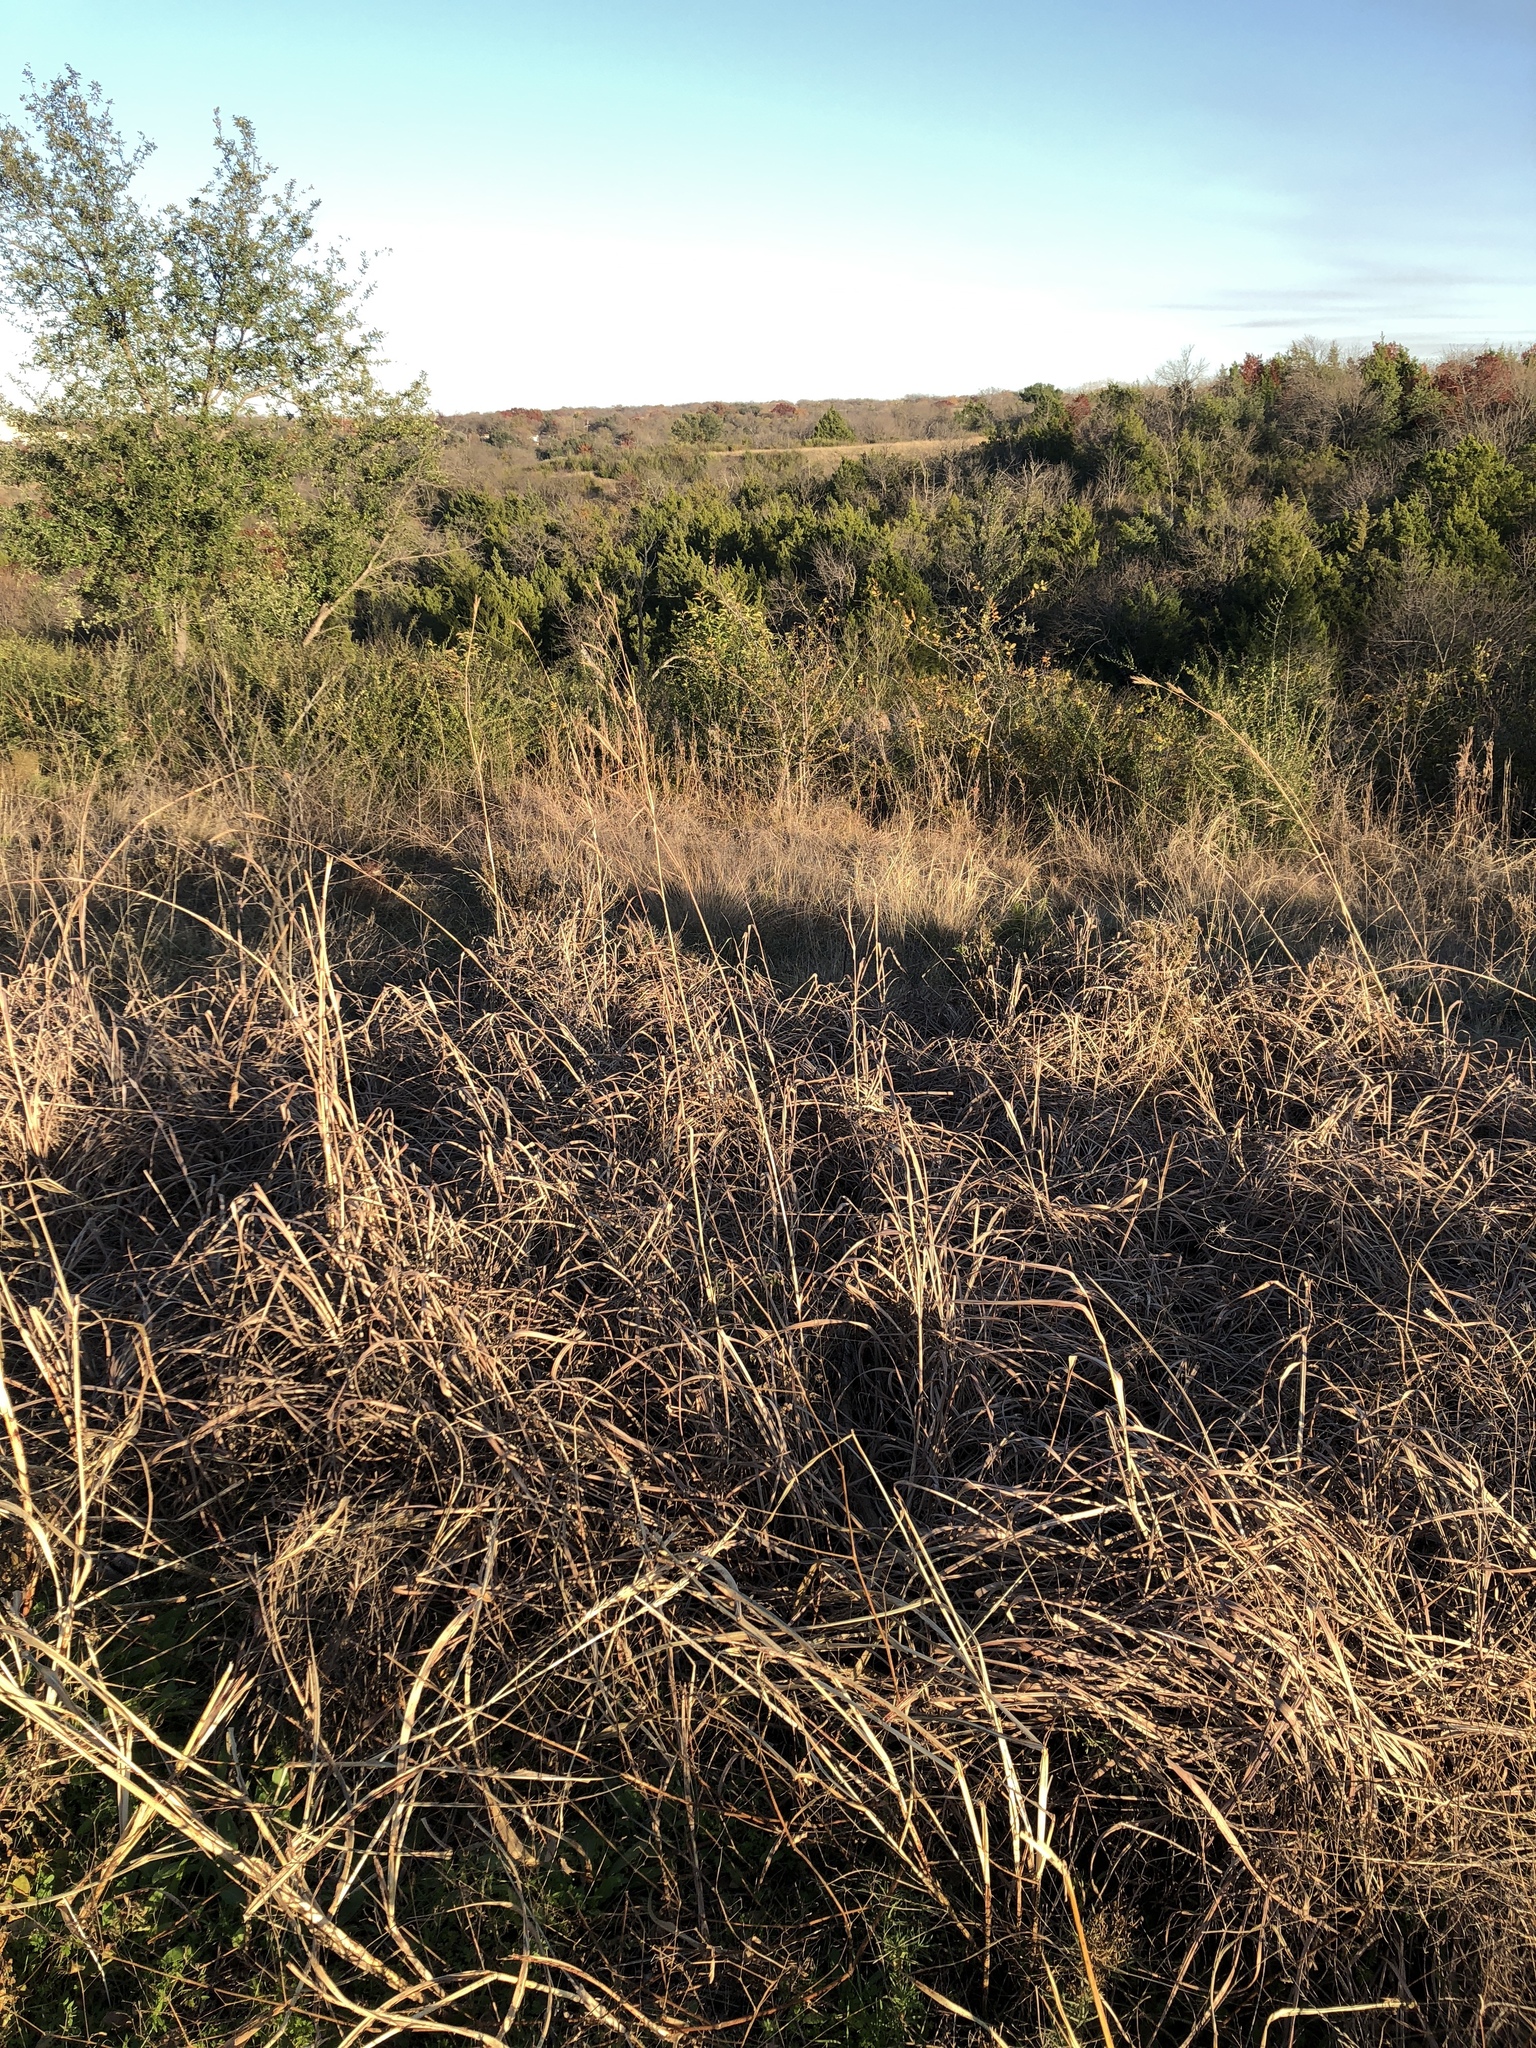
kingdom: Plantae
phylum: Tracheophyta
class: Liliopsida
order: Poales
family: Poaceae
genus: Andropogon
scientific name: Andropogon gerardi
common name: Big bluestem
